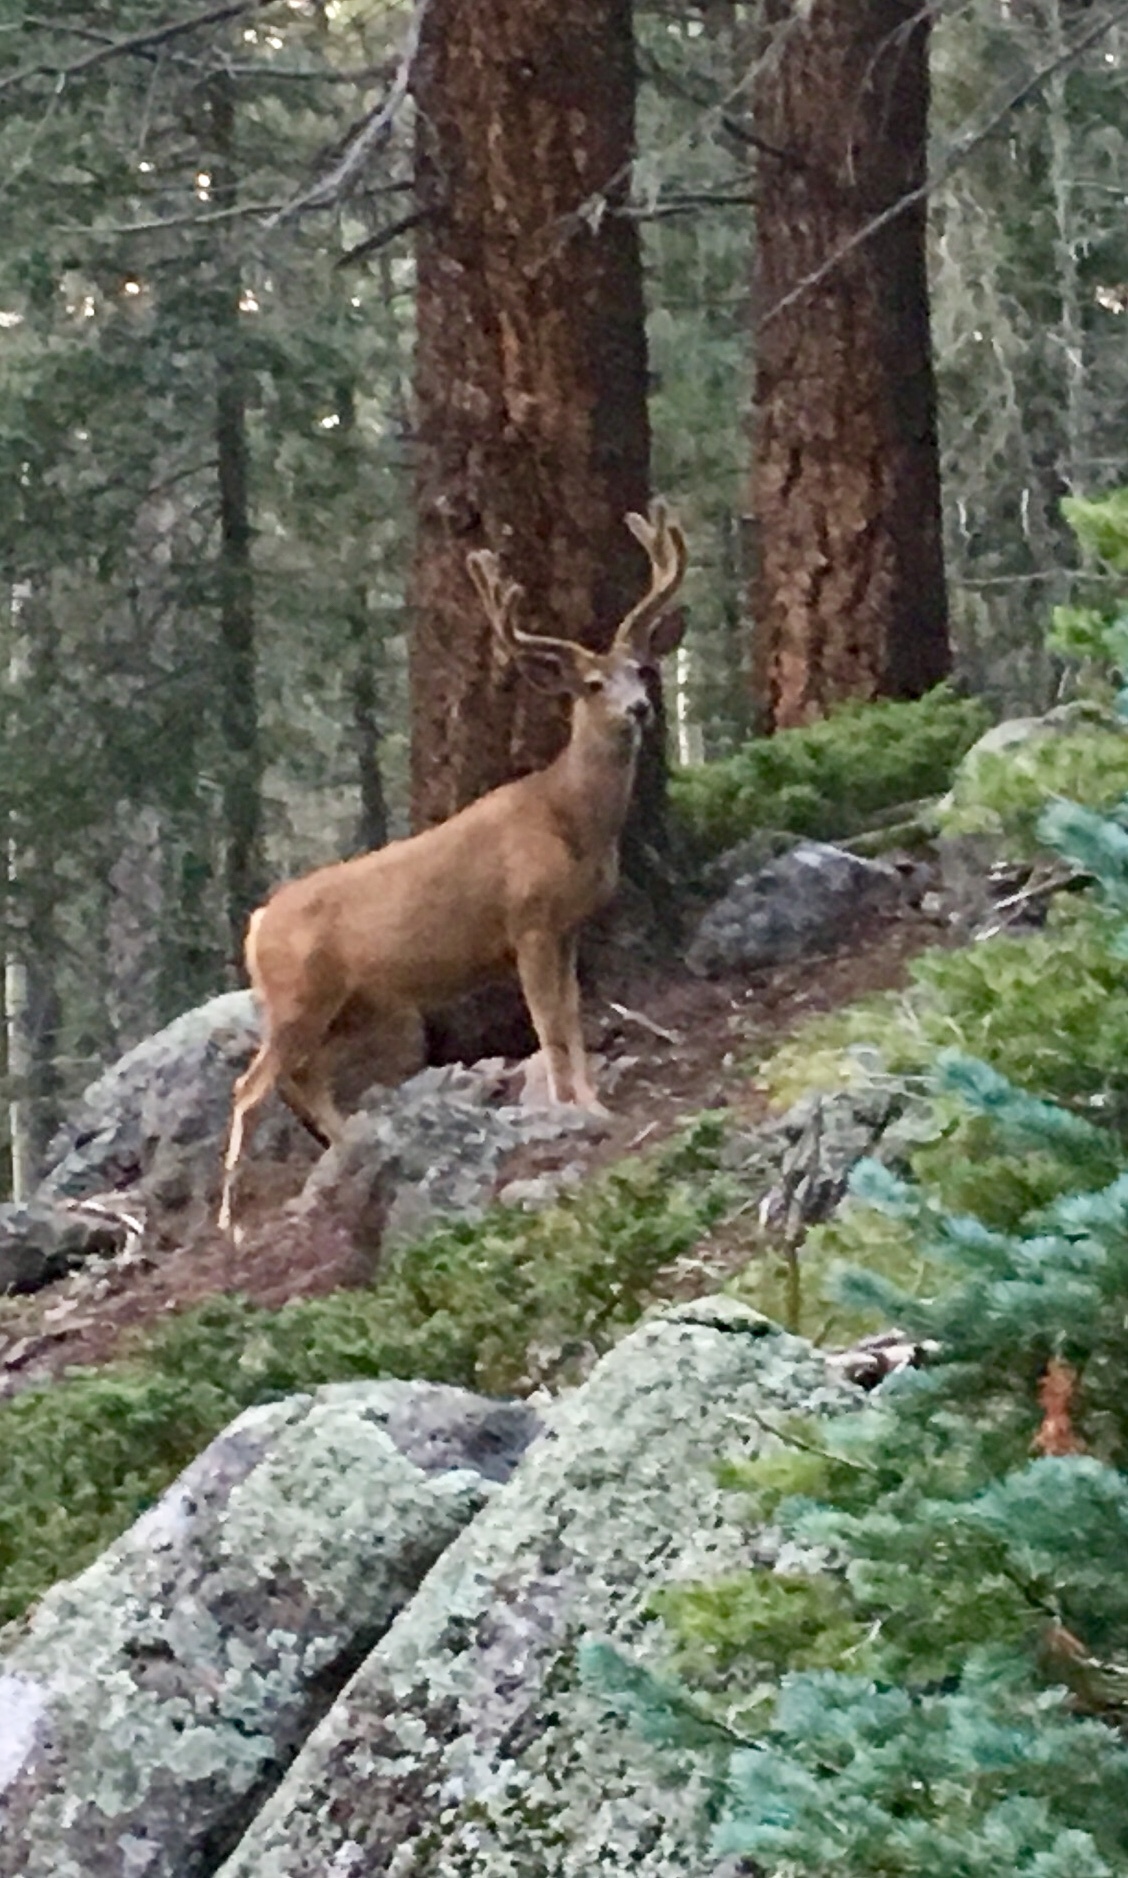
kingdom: Animalia
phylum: Chordata
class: Mammalia
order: Artiodactyla
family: Cervidae
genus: Odocoileus
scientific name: Odocoileus hemionus
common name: Mule deer
